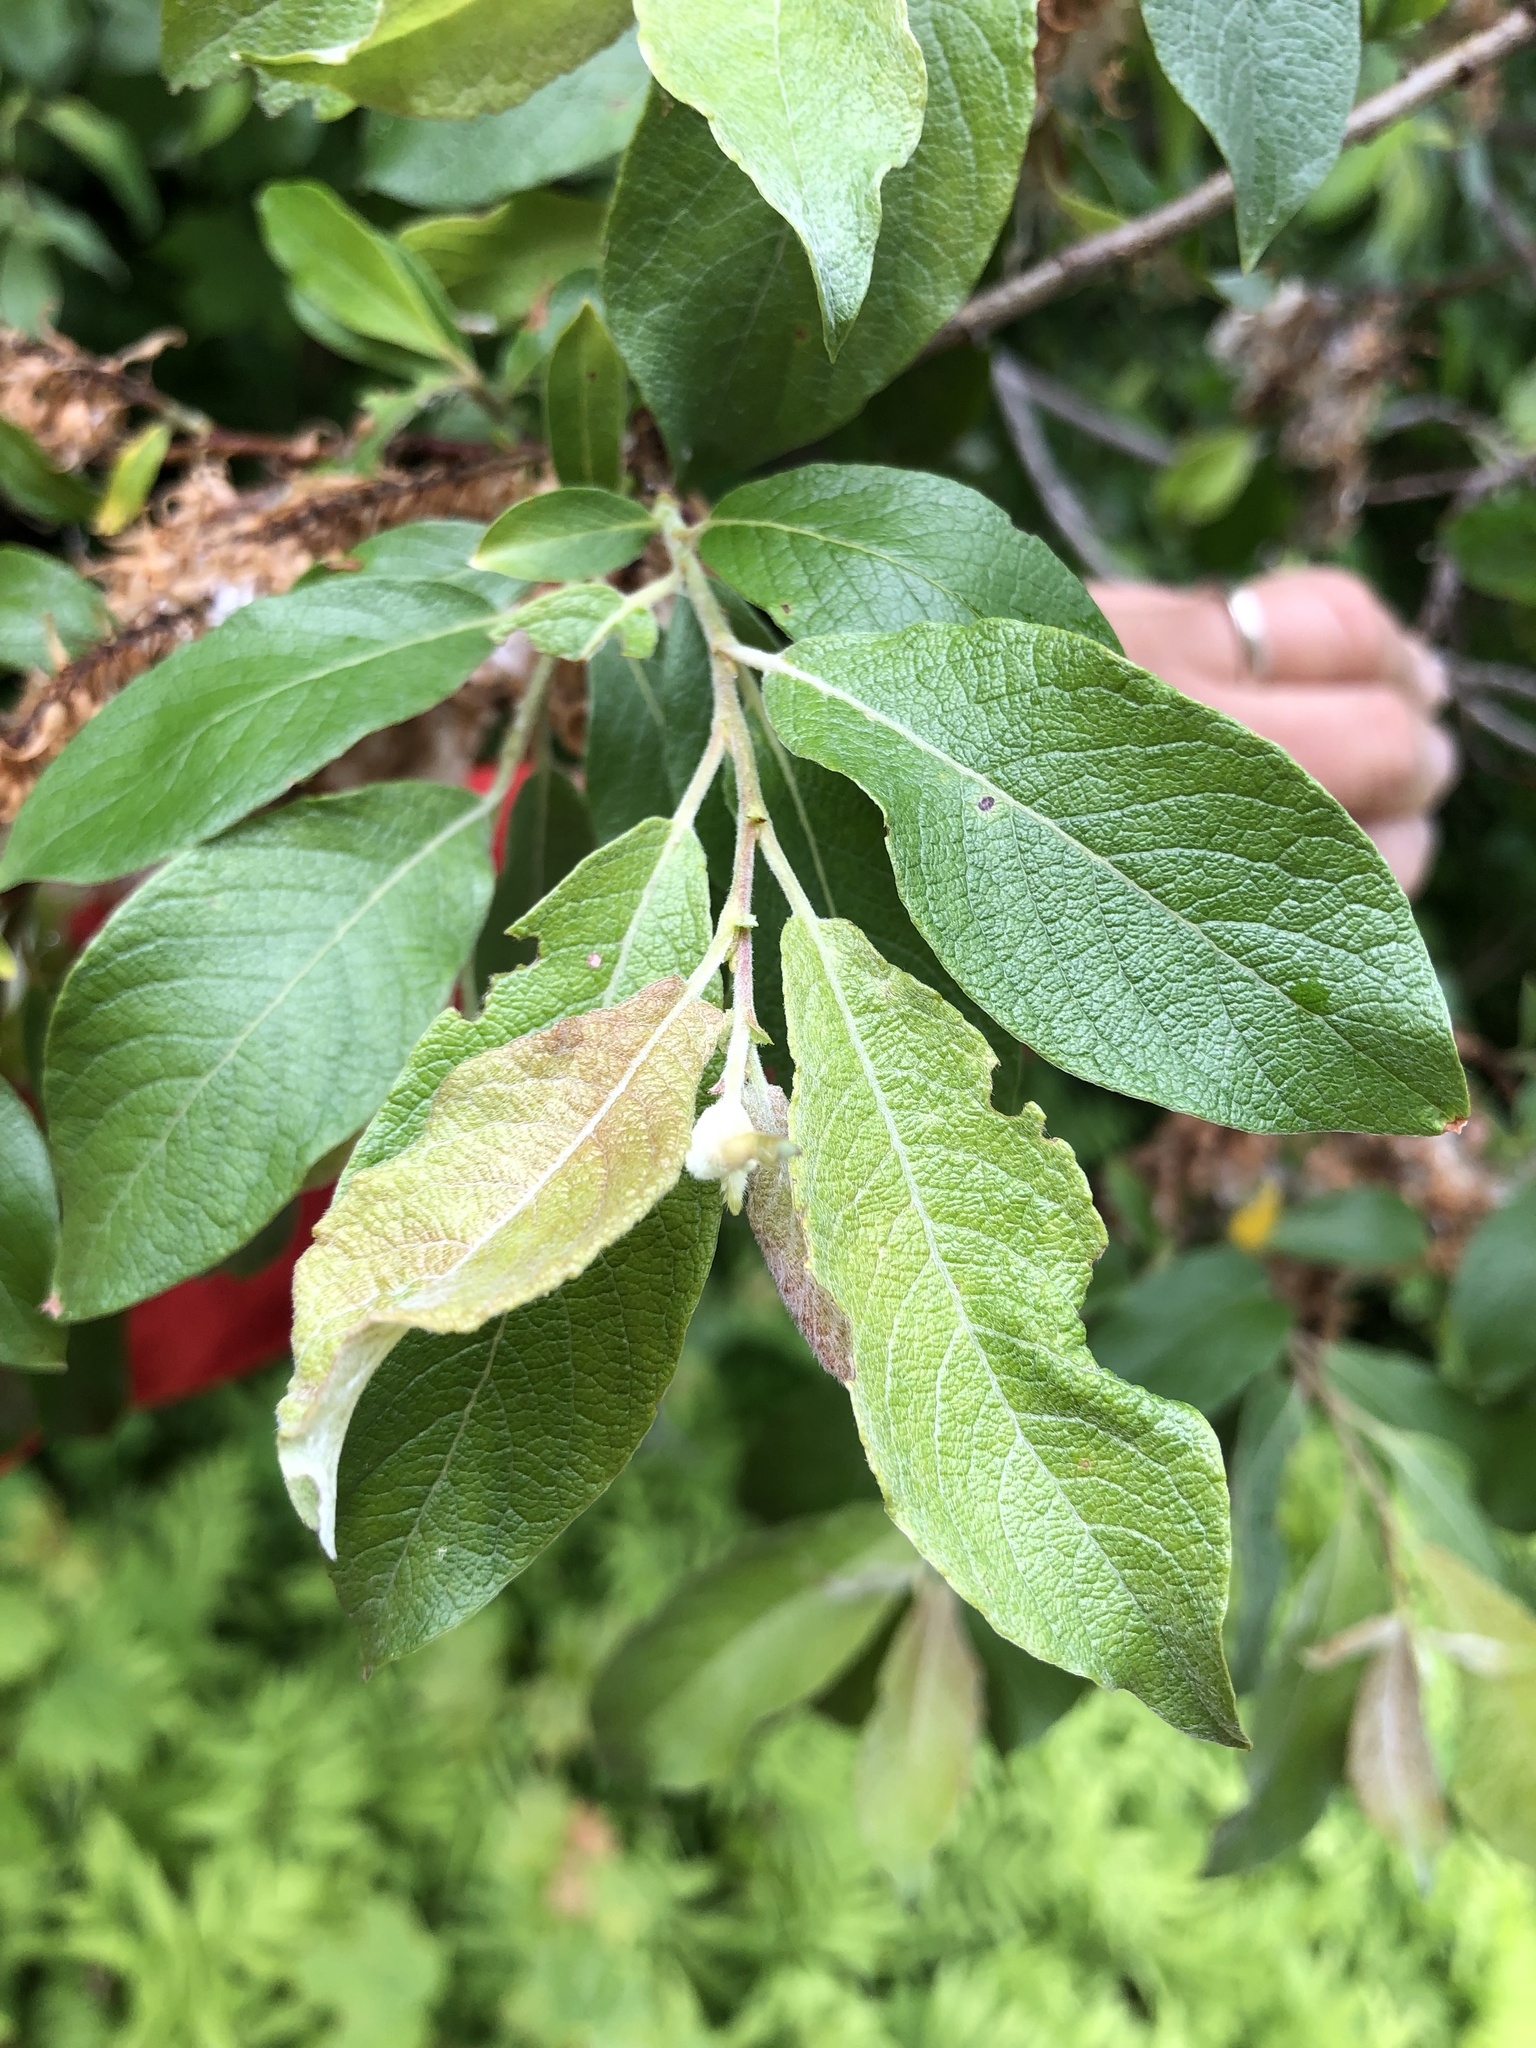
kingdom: Plantae
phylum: Tracheophyta
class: Magnoliopsida
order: Malpighiales
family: Salicaceae
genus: Salix
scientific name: Salix bebbiana
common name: Bebb's willow
